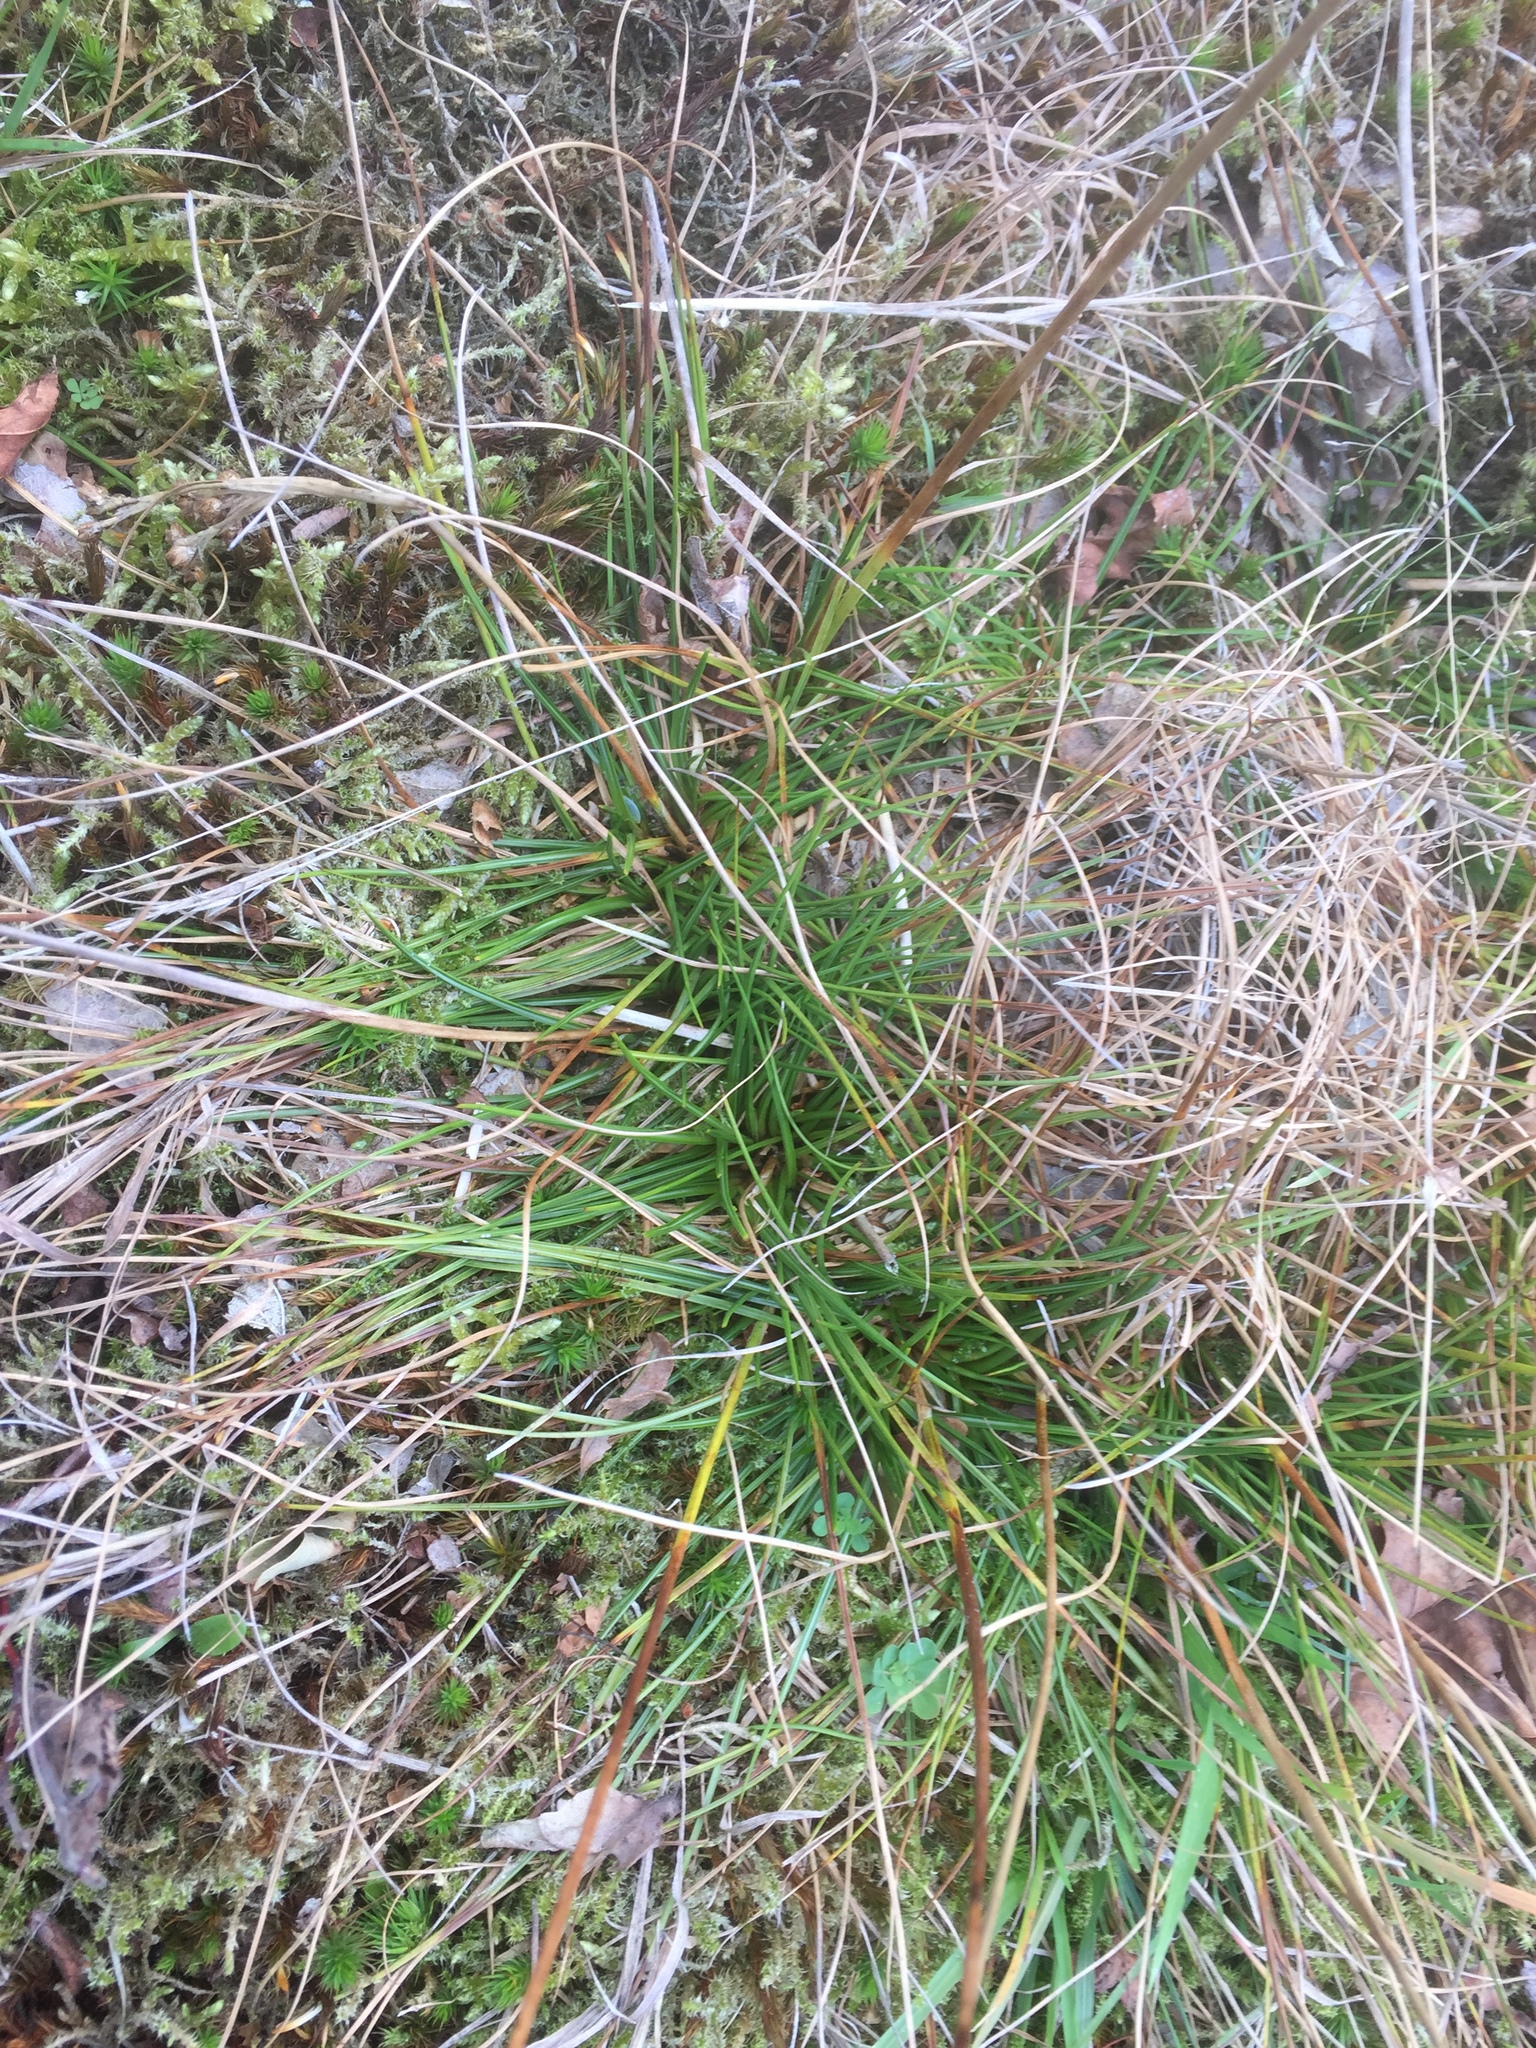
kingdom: Plantae
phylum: Tracheophyta
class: Liliopsida
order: Poales
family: Juncaceae
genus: Juncus
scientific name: Juncus squarrosus
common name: Heath rush
